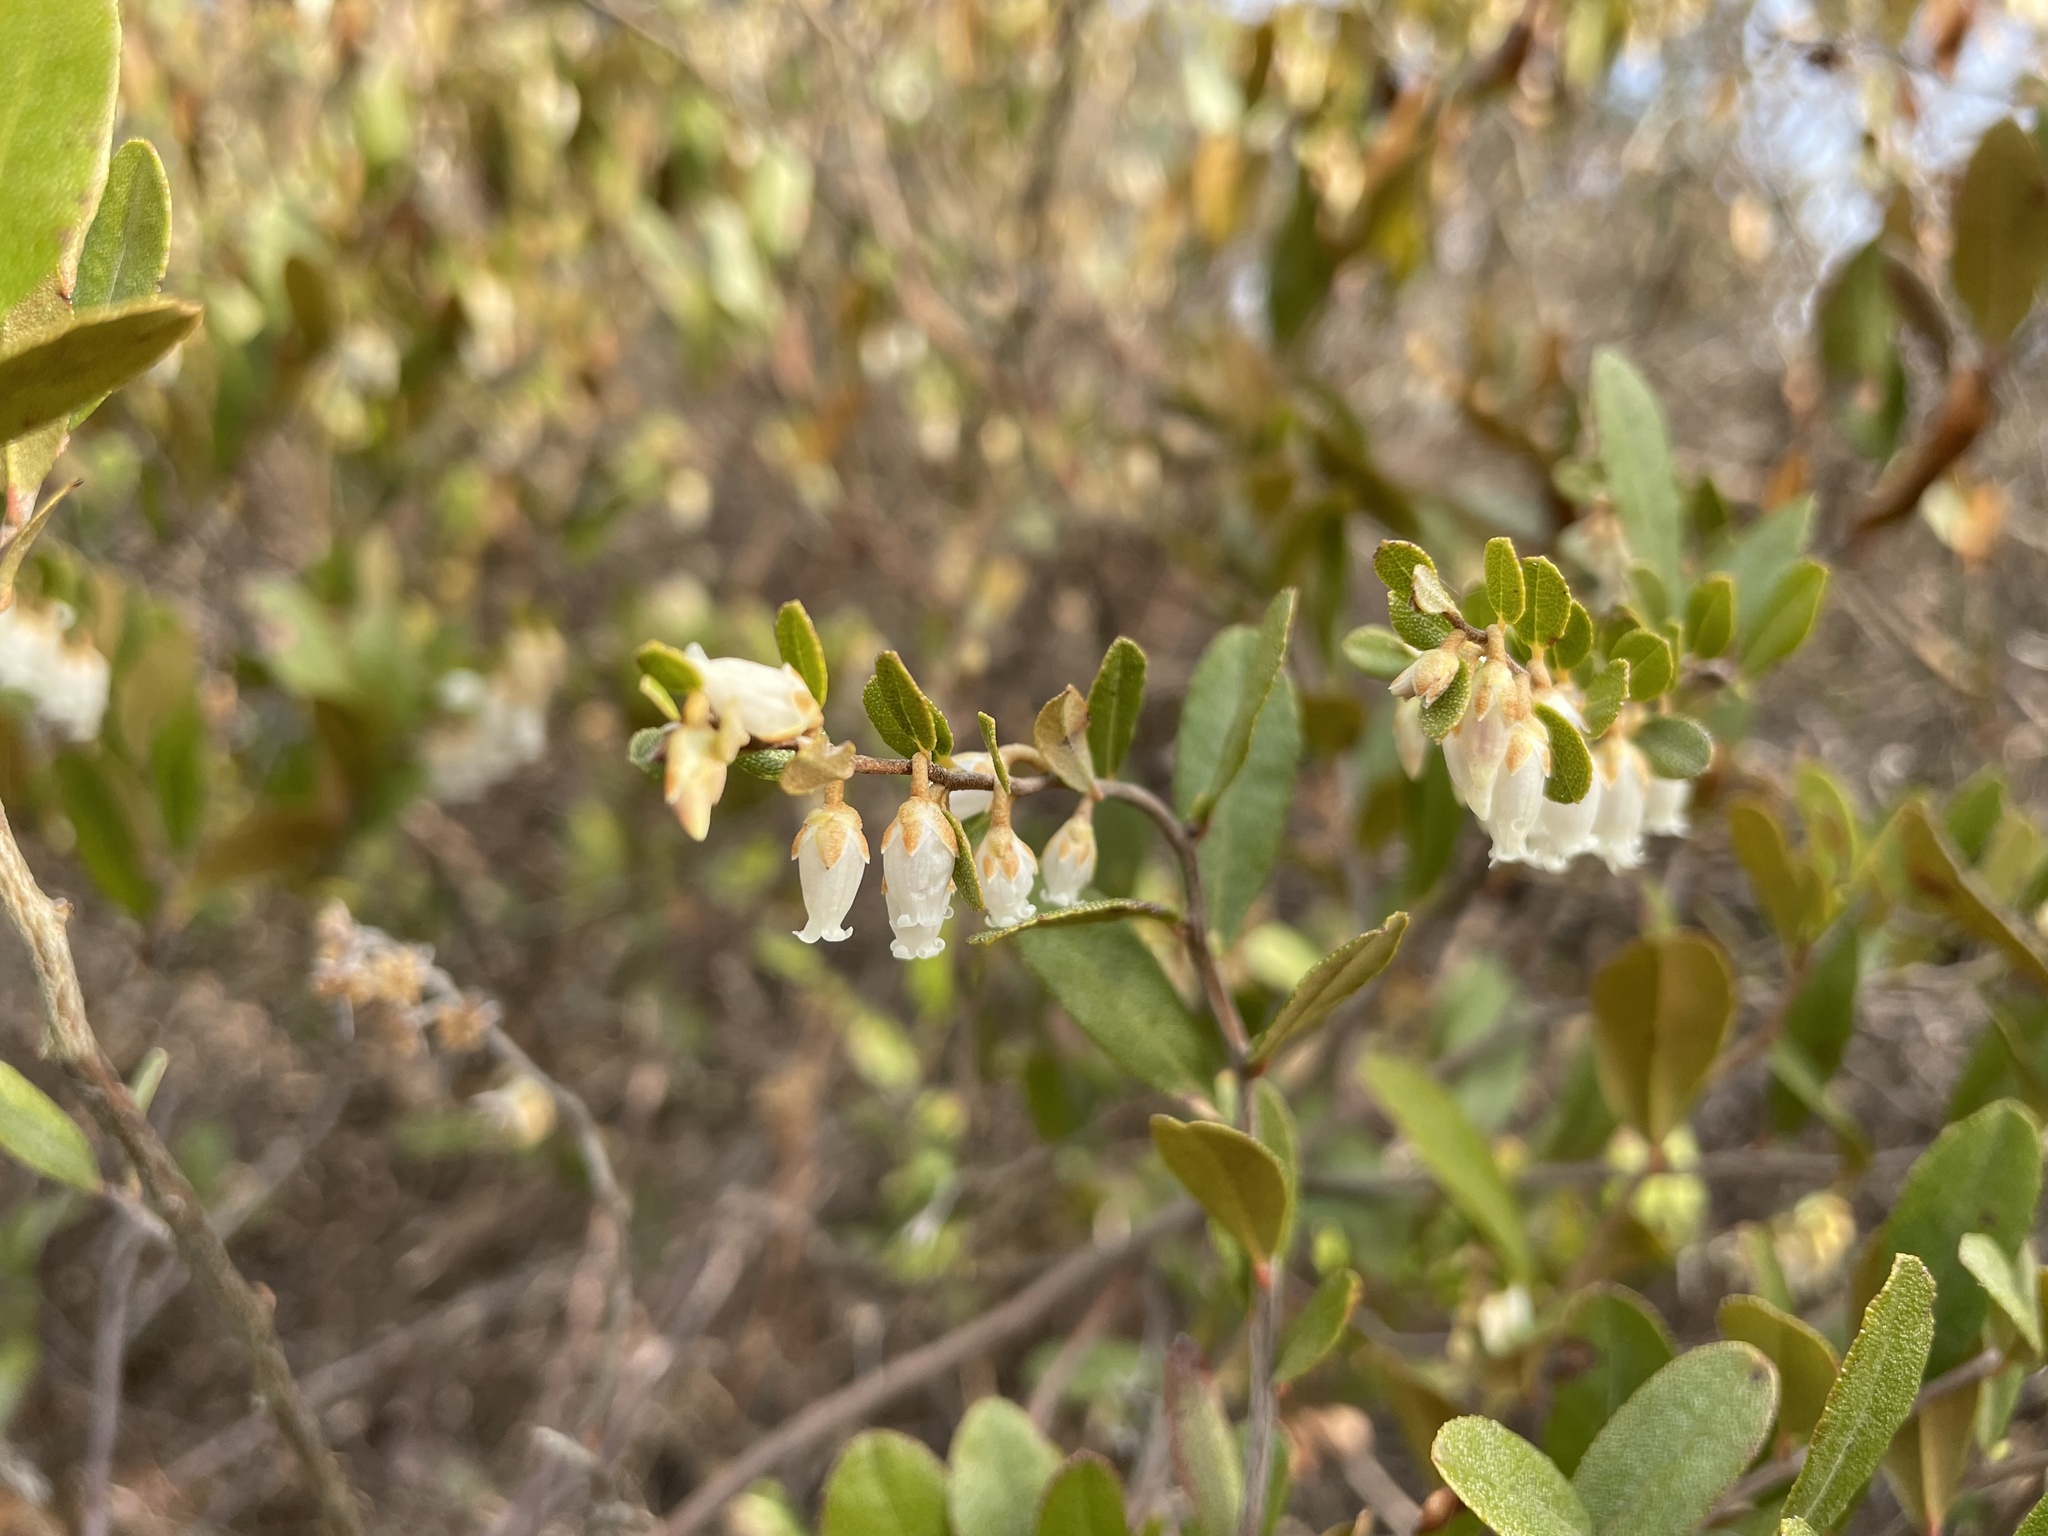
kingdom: Plantae
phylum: Tracheophyta
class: Magnoliopsida
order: Ericales
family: Ericaceae
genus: Chamaedaphne
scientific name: Chamaedaphne calyculata
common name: Leatherleaf
